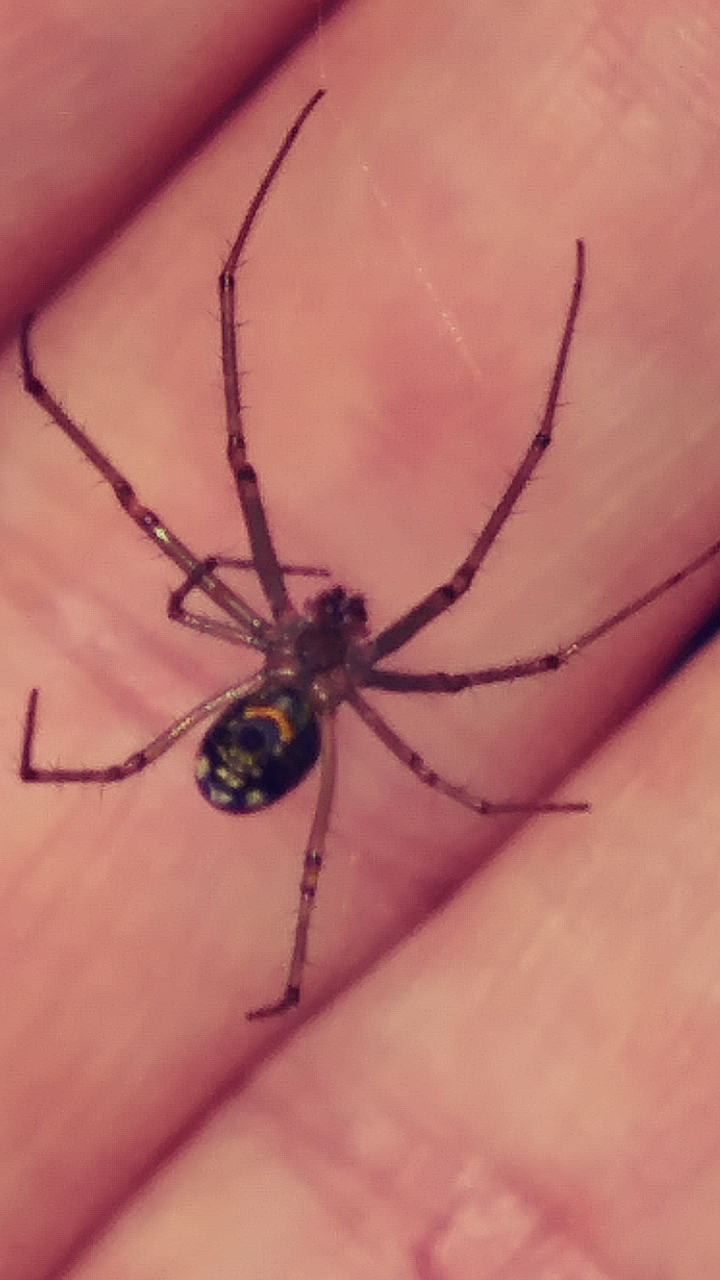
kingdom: Animalia
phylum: Arthropoda
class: Arachnida
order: Araneae
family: Tetragnathidae
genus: Leucauge
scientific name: Leucauge venusta
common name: Longjawed orb weavers
